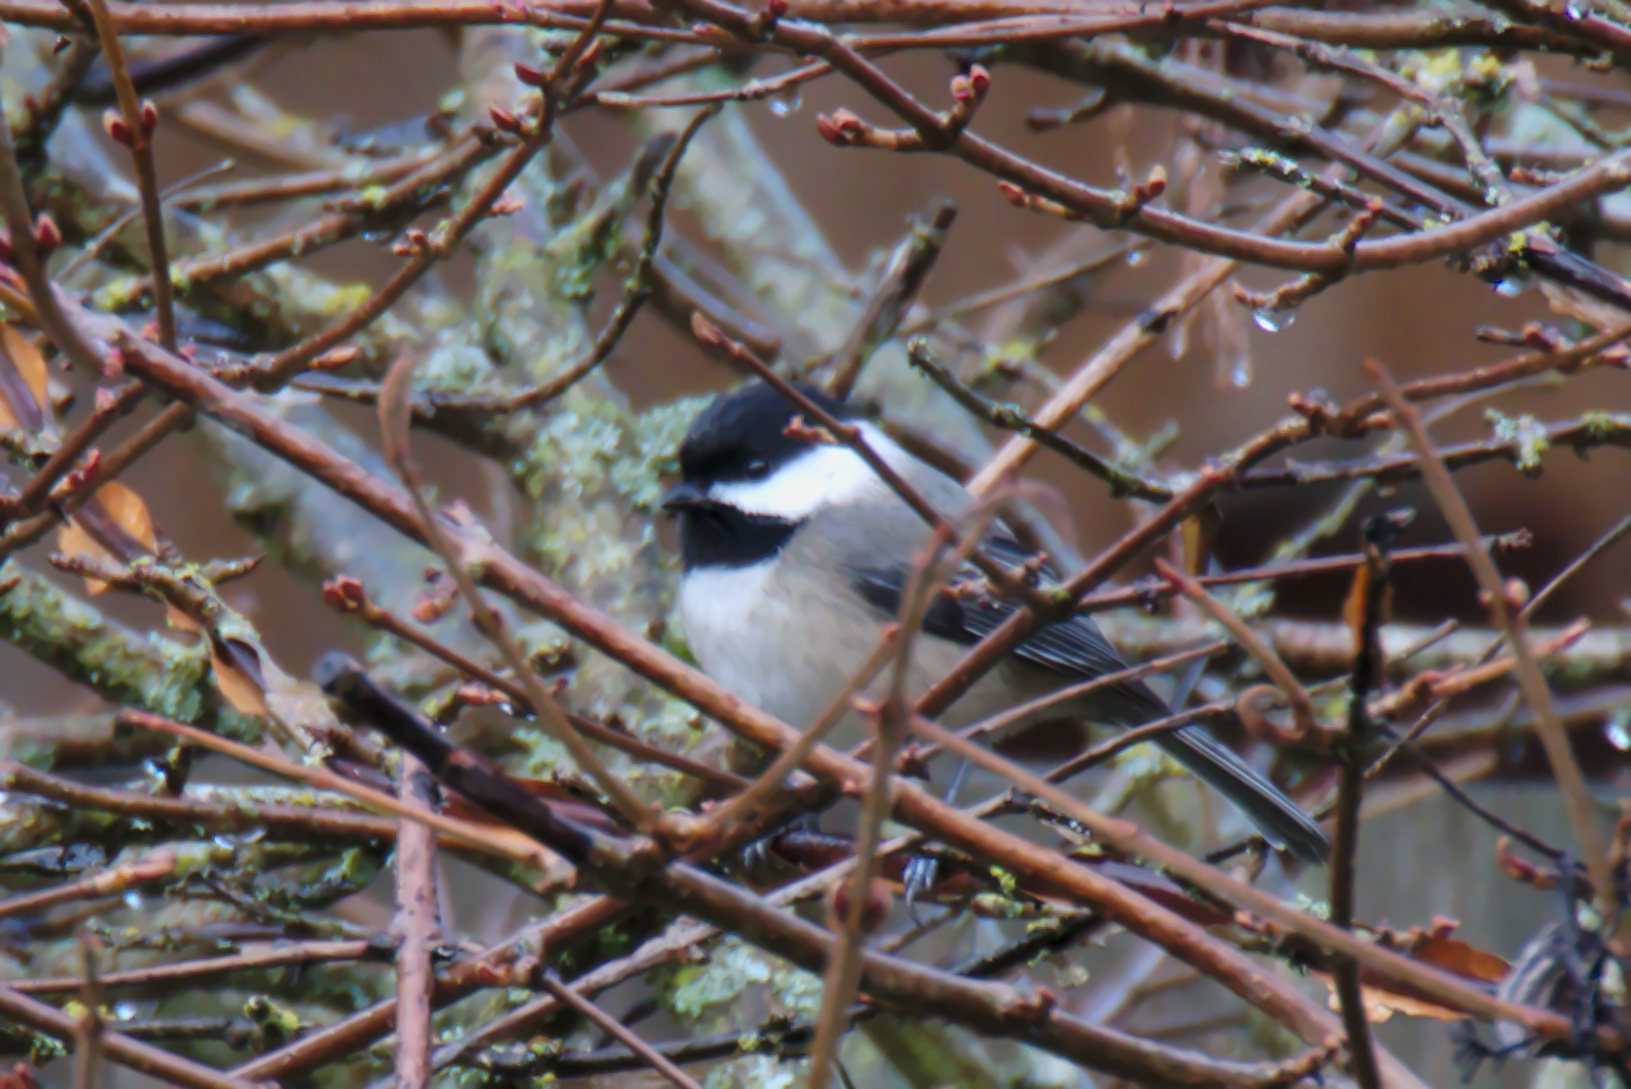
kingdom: Animalia
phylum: Chordata
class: Aves
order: Passeriformes
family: Paridae
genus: Poecile
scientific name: Poecile atricapillus
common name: Black-capped chickadee
